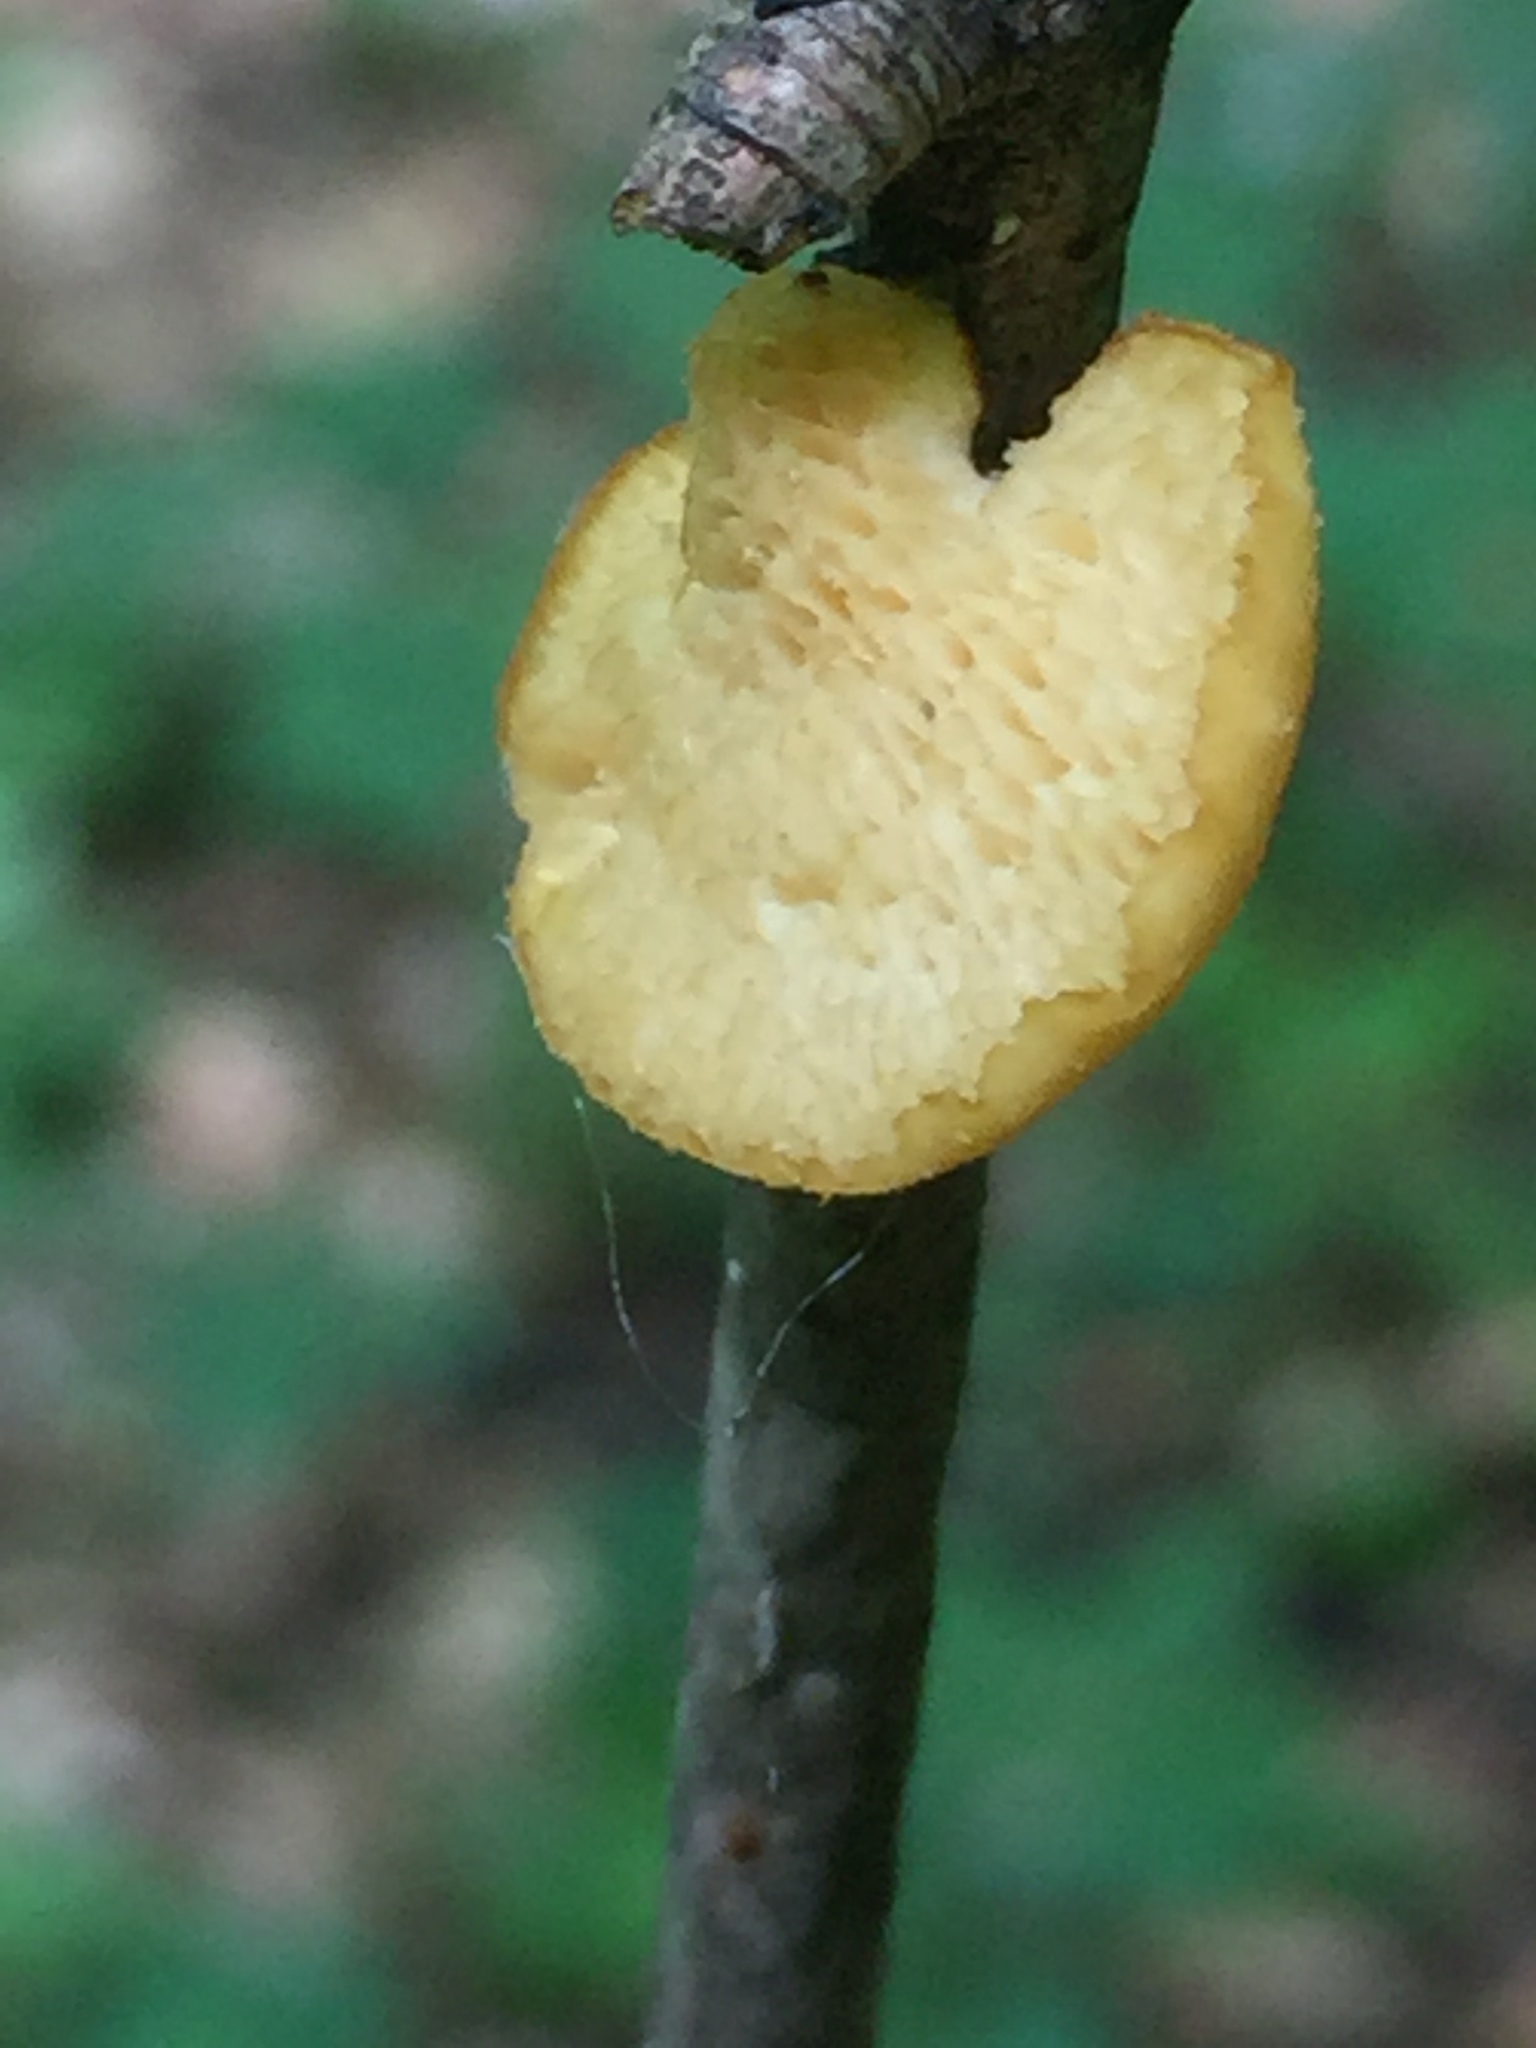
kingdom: Fungi
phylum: Basidiomycota
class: Agaricomycetes
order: Polyporales
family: Polyporaceae
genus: Neofavolus
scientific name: Neofavolus alveolaris
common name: Hexagonal-pored polypore
